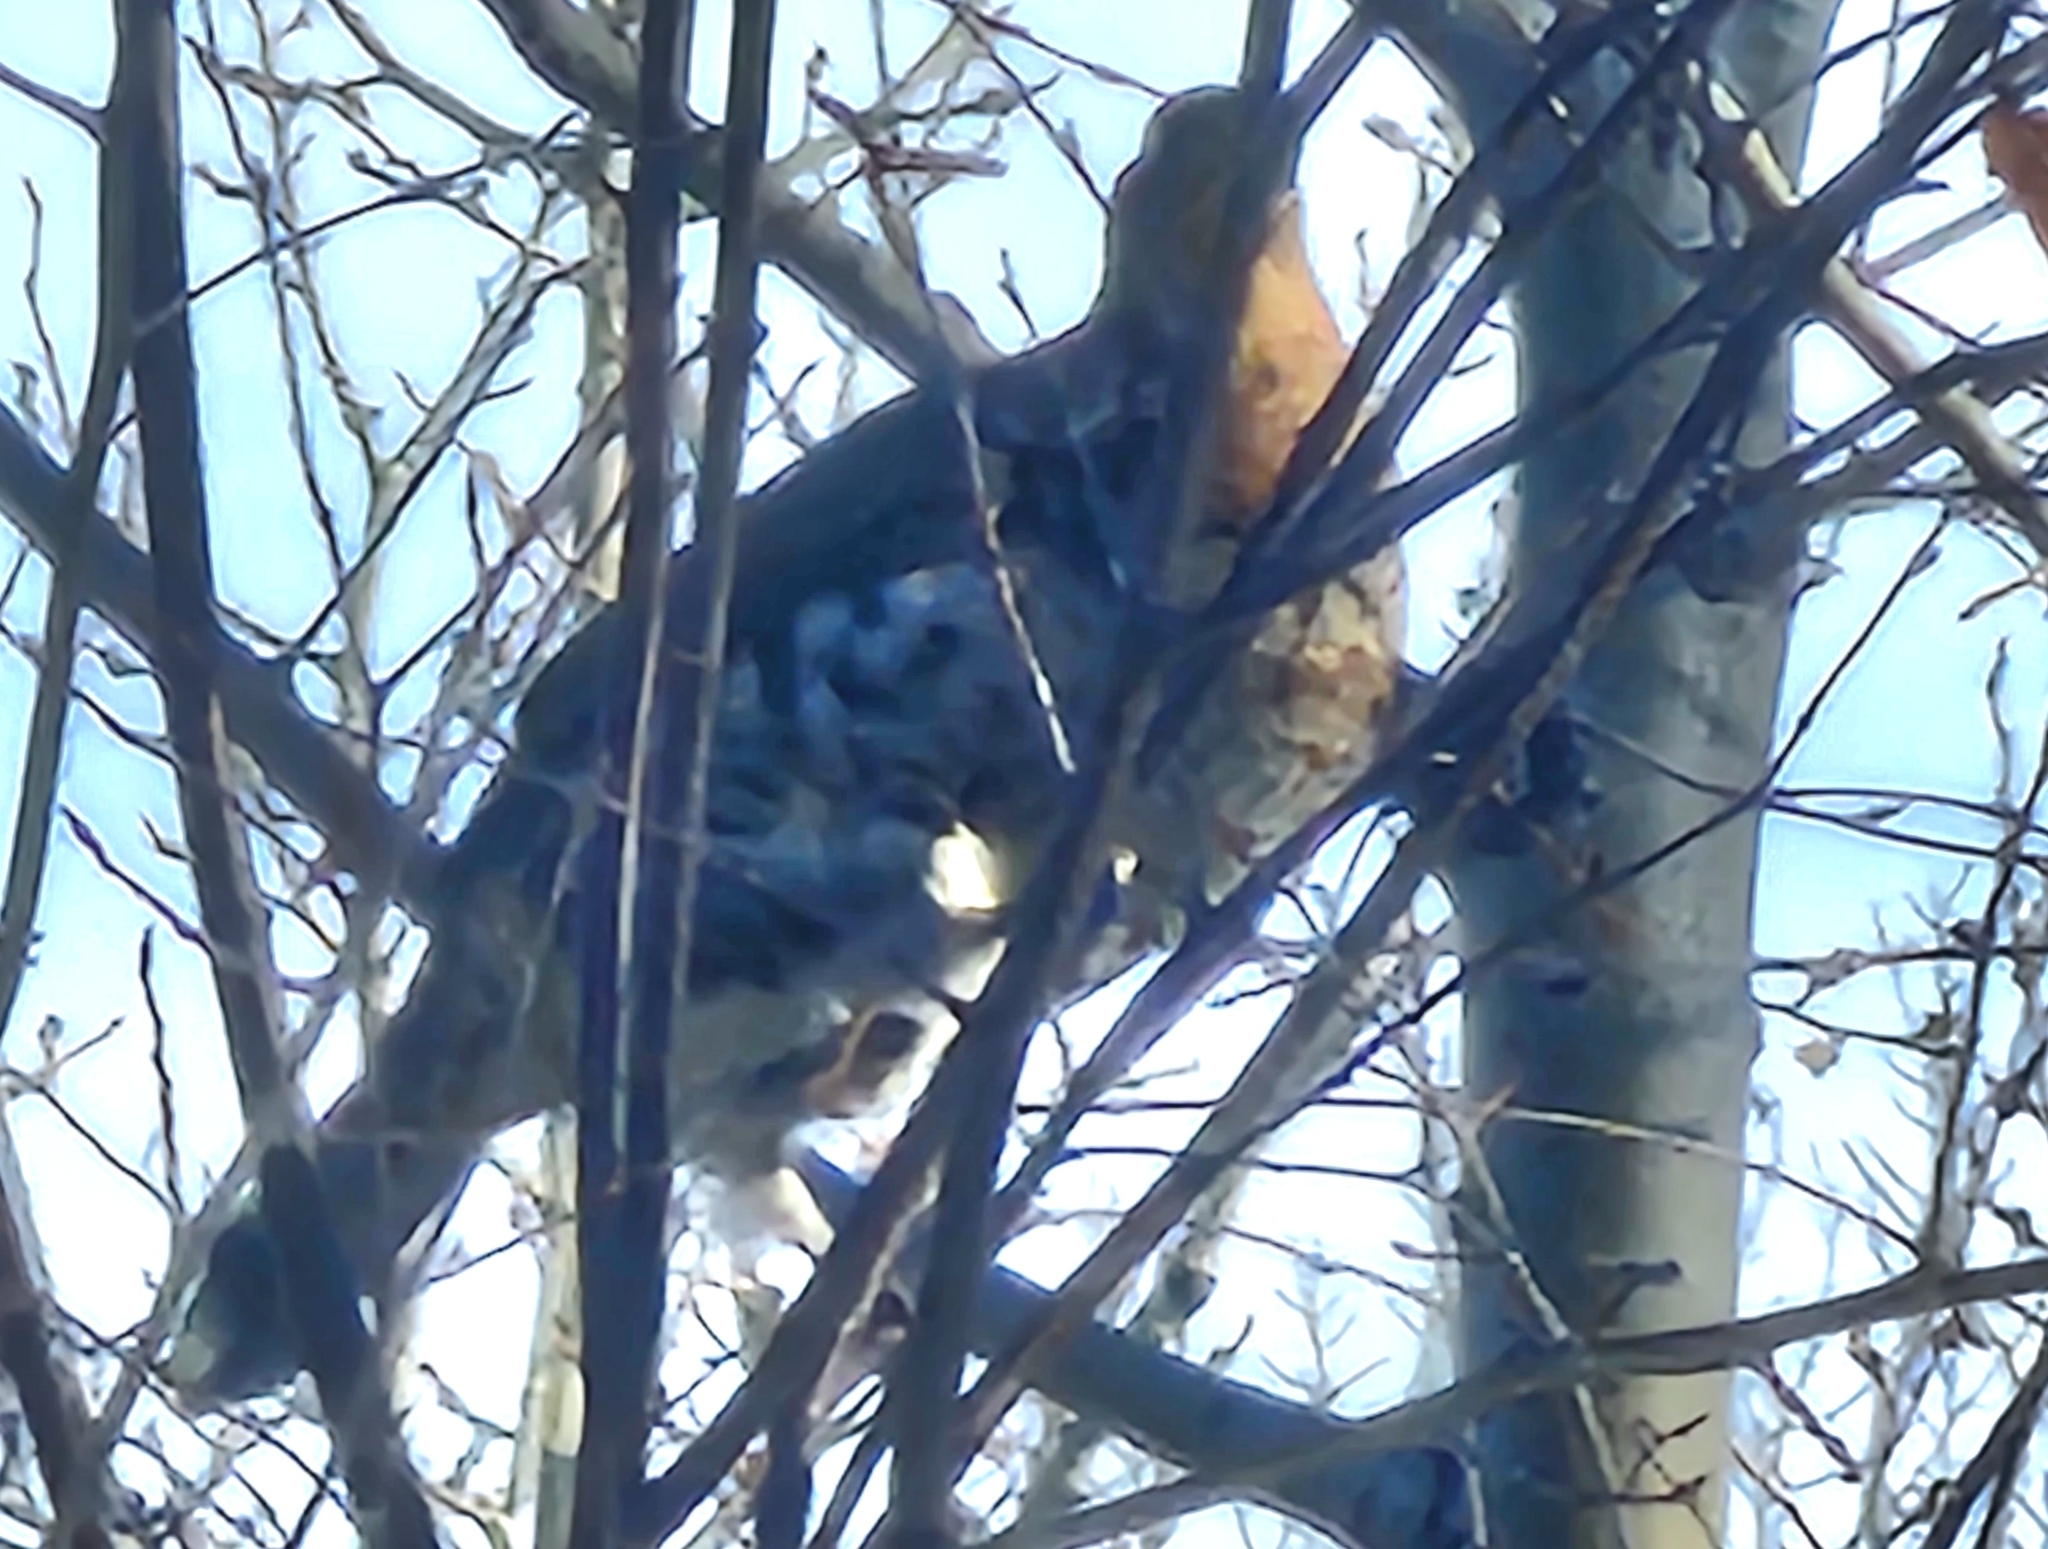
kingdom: Animalia
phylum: Chordata
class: Aves
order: Galliformes
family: Phasianidae
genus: Bonasa
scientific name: Bonasa umbellus
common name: Ruffed grouse
